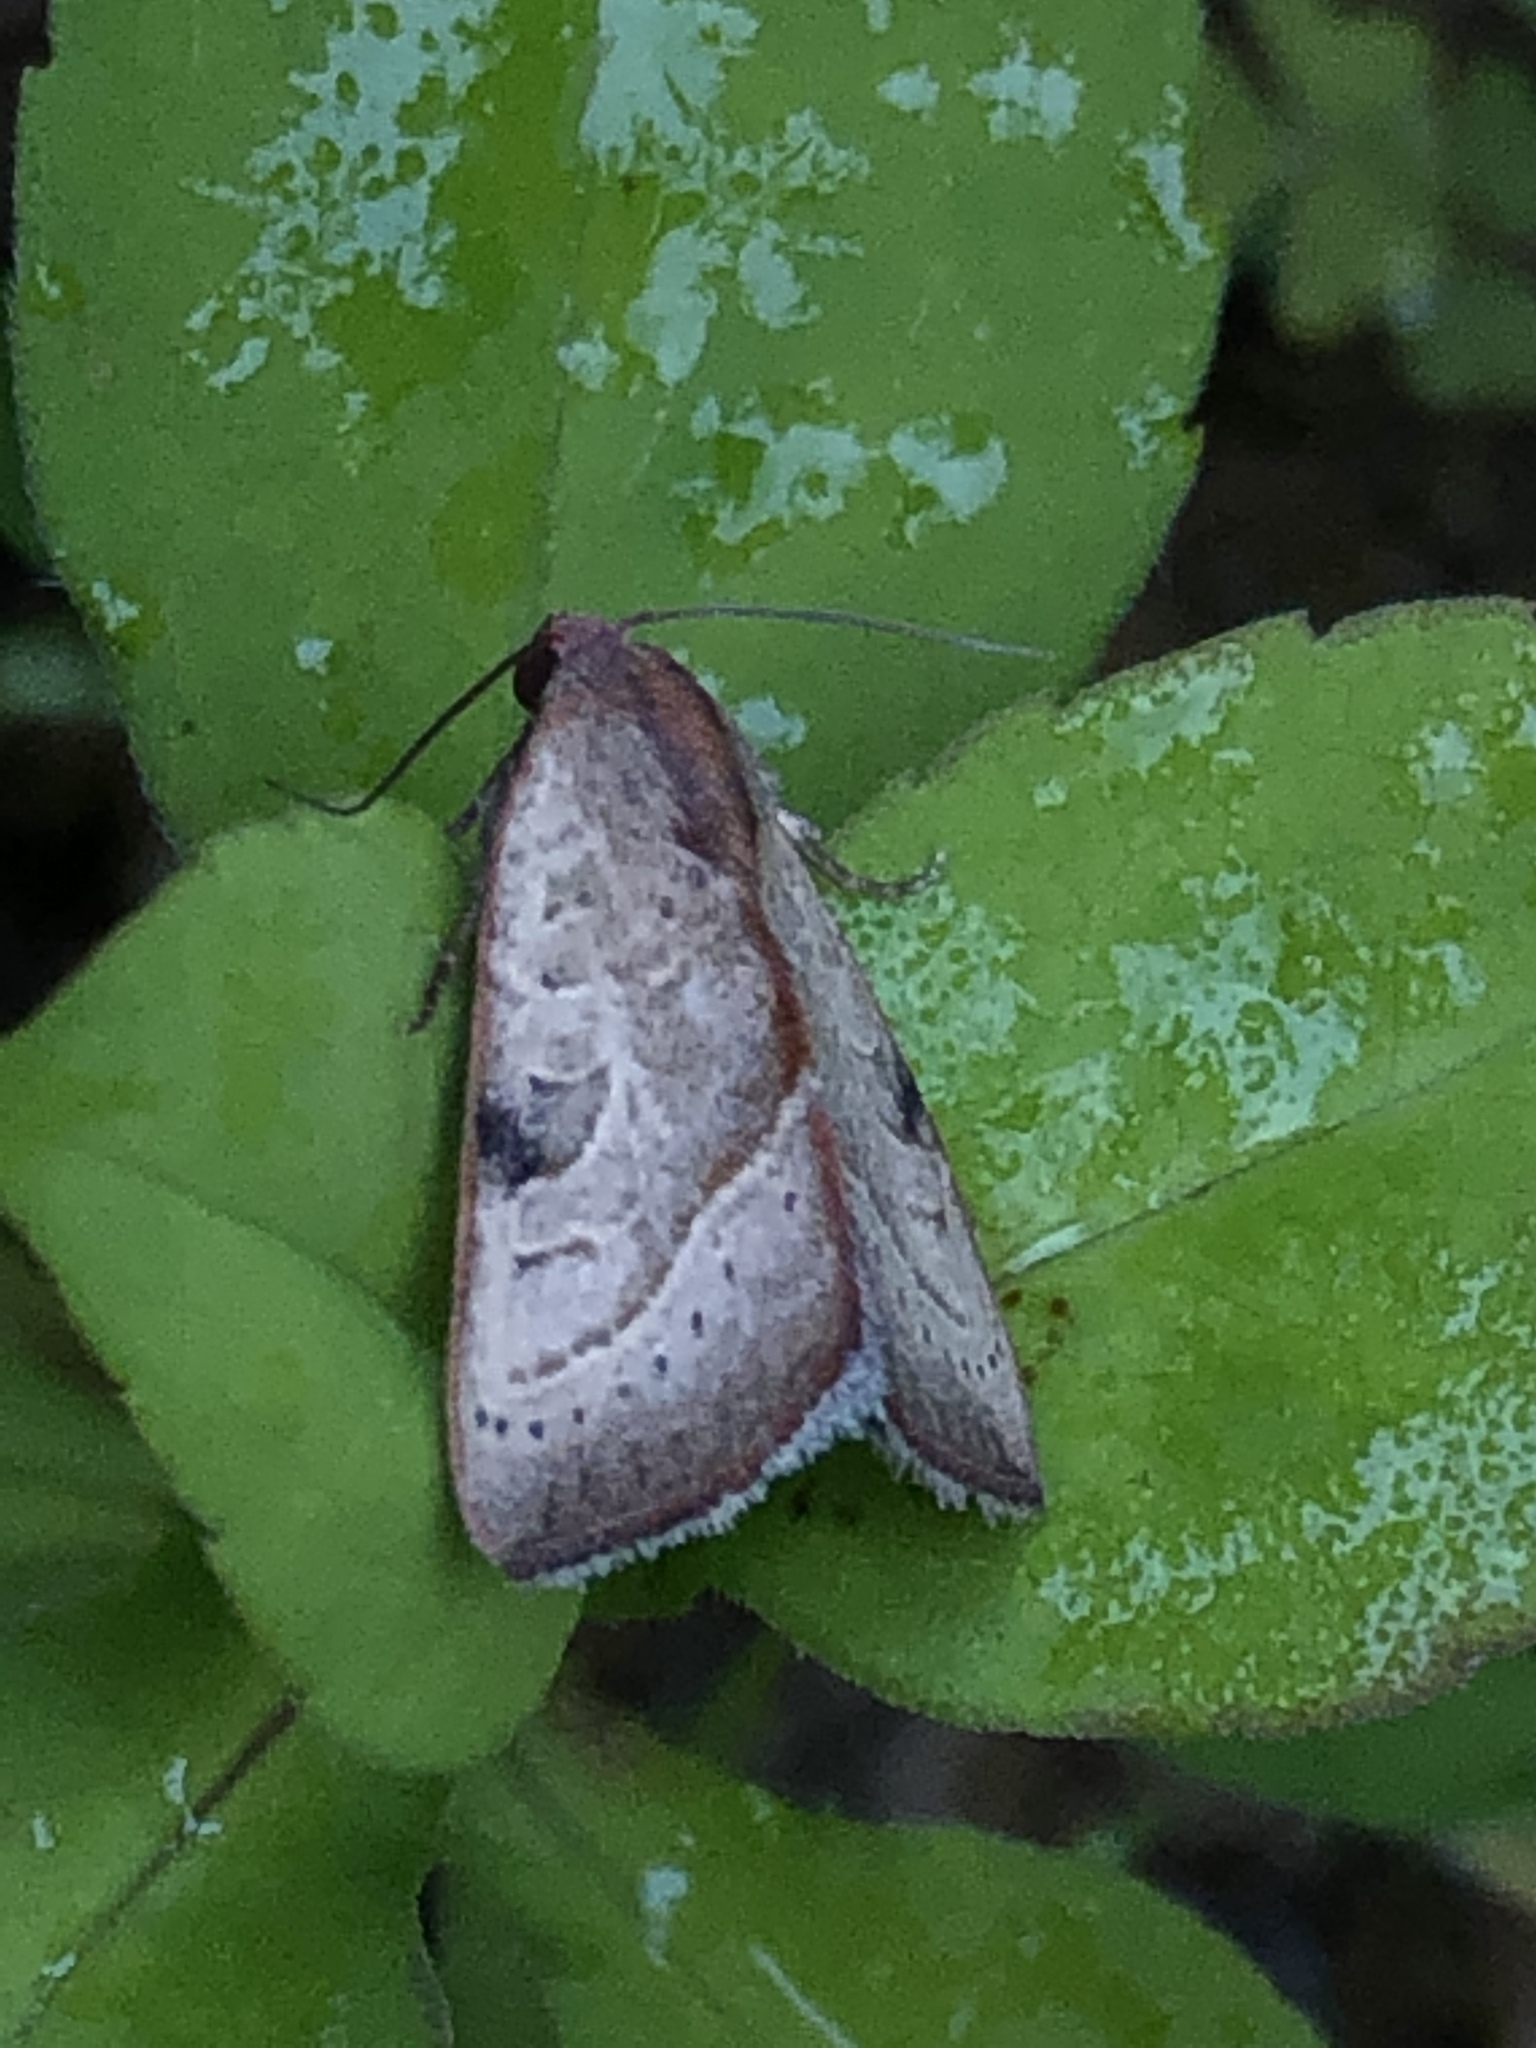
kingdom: Animalia
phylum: Arthropoda
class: Insecta
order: Lepidoptera
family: Noctuidae
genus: Galgula
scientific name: Galgula partita
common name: Wedgeling
